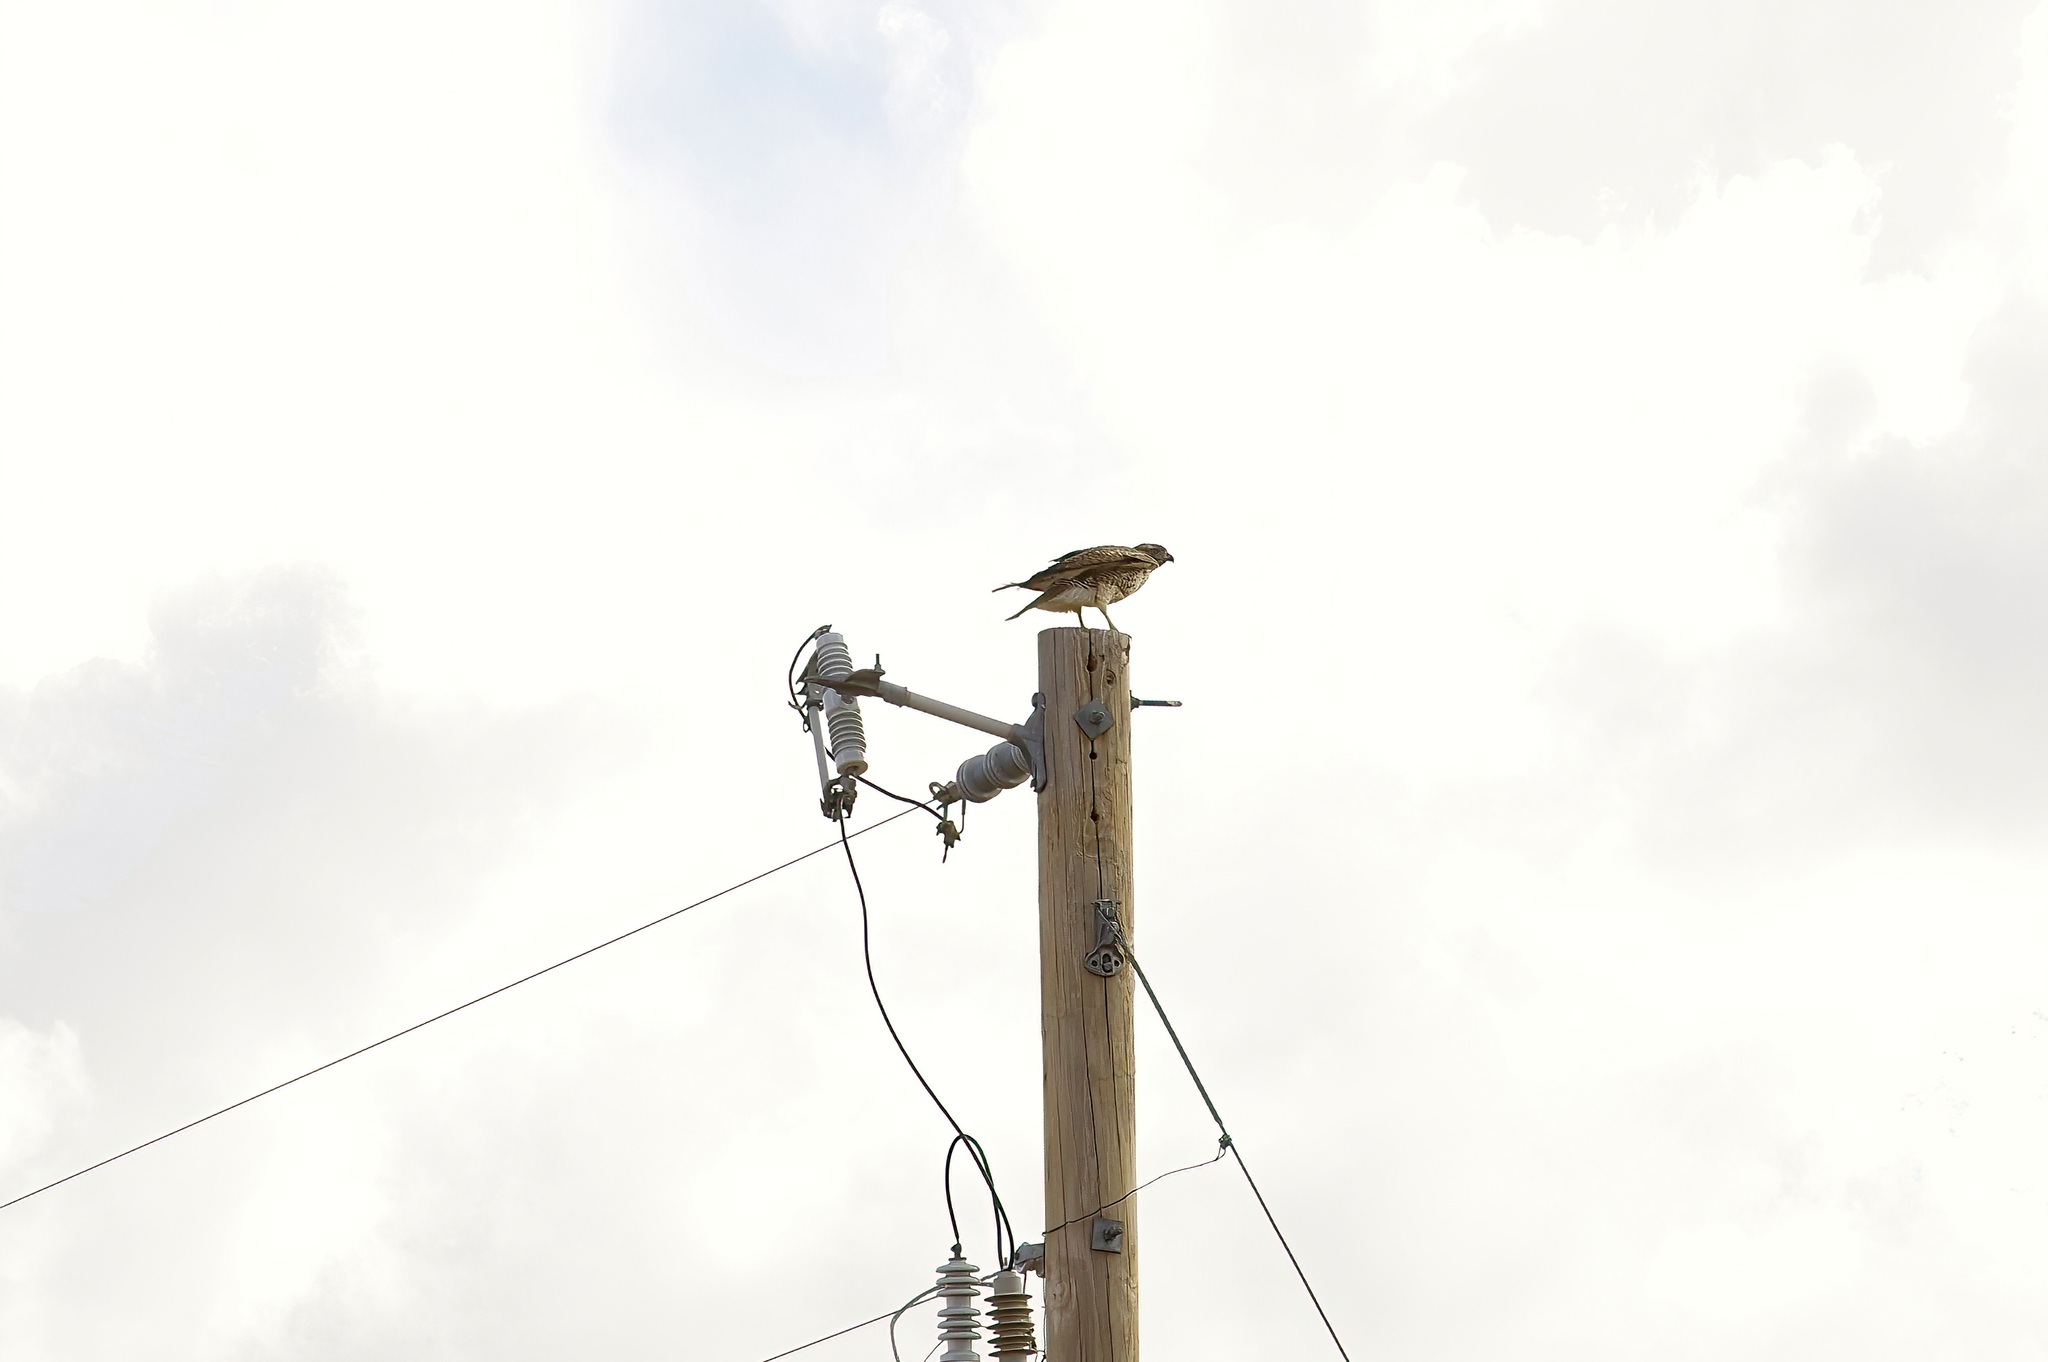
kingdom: Animalia
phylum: Chordata
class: Aves
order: Accipitriformes
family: Accipitridae
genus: Buteo
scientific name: Buteo jamaicensis
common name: Red-tailed hawk
